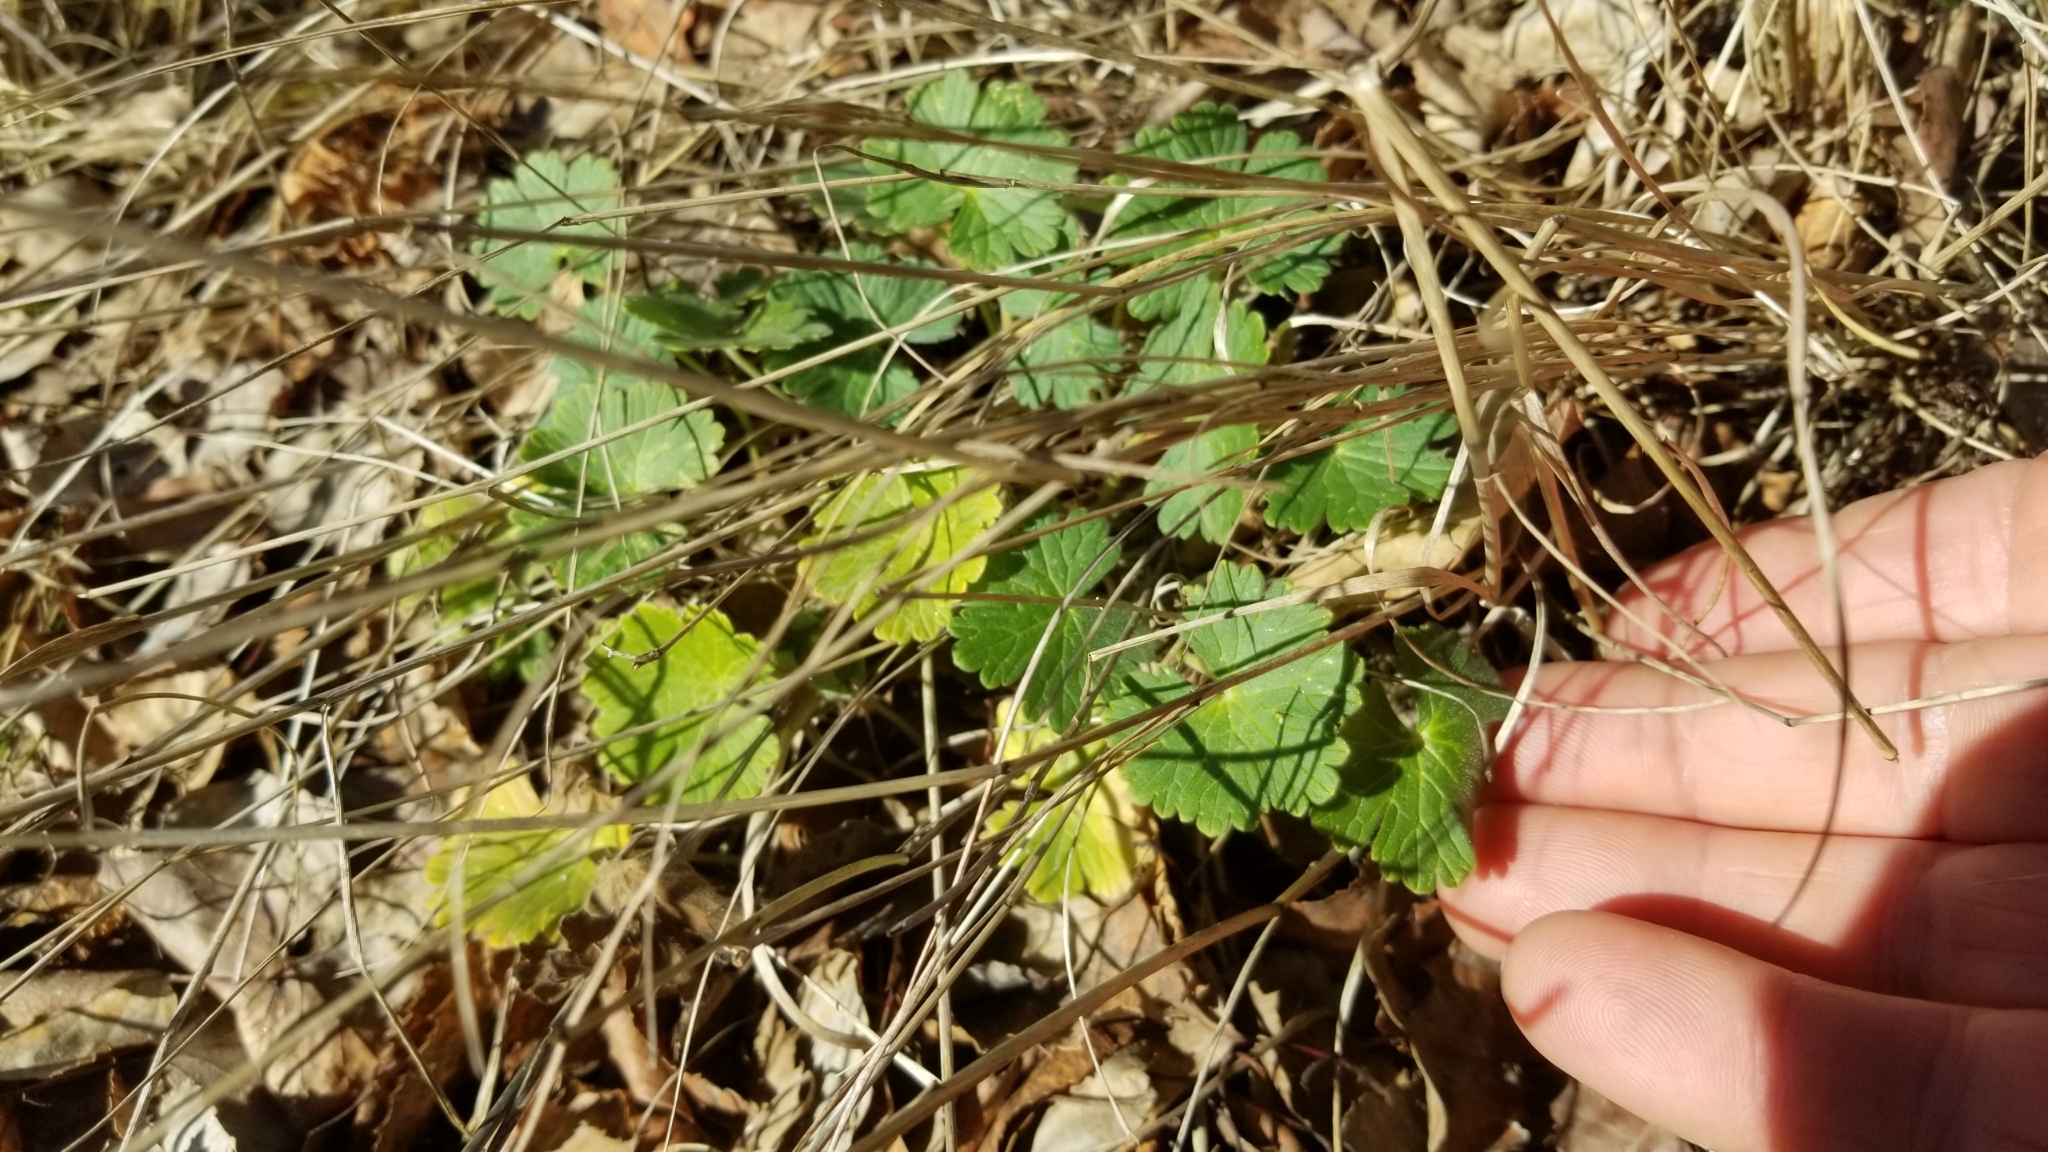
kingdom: Plantae
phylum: Tracheophyta
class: Magnoliopsida
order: Geraniales
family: Geraniaceae
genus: Geranium
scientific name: Geranium brevicaule
